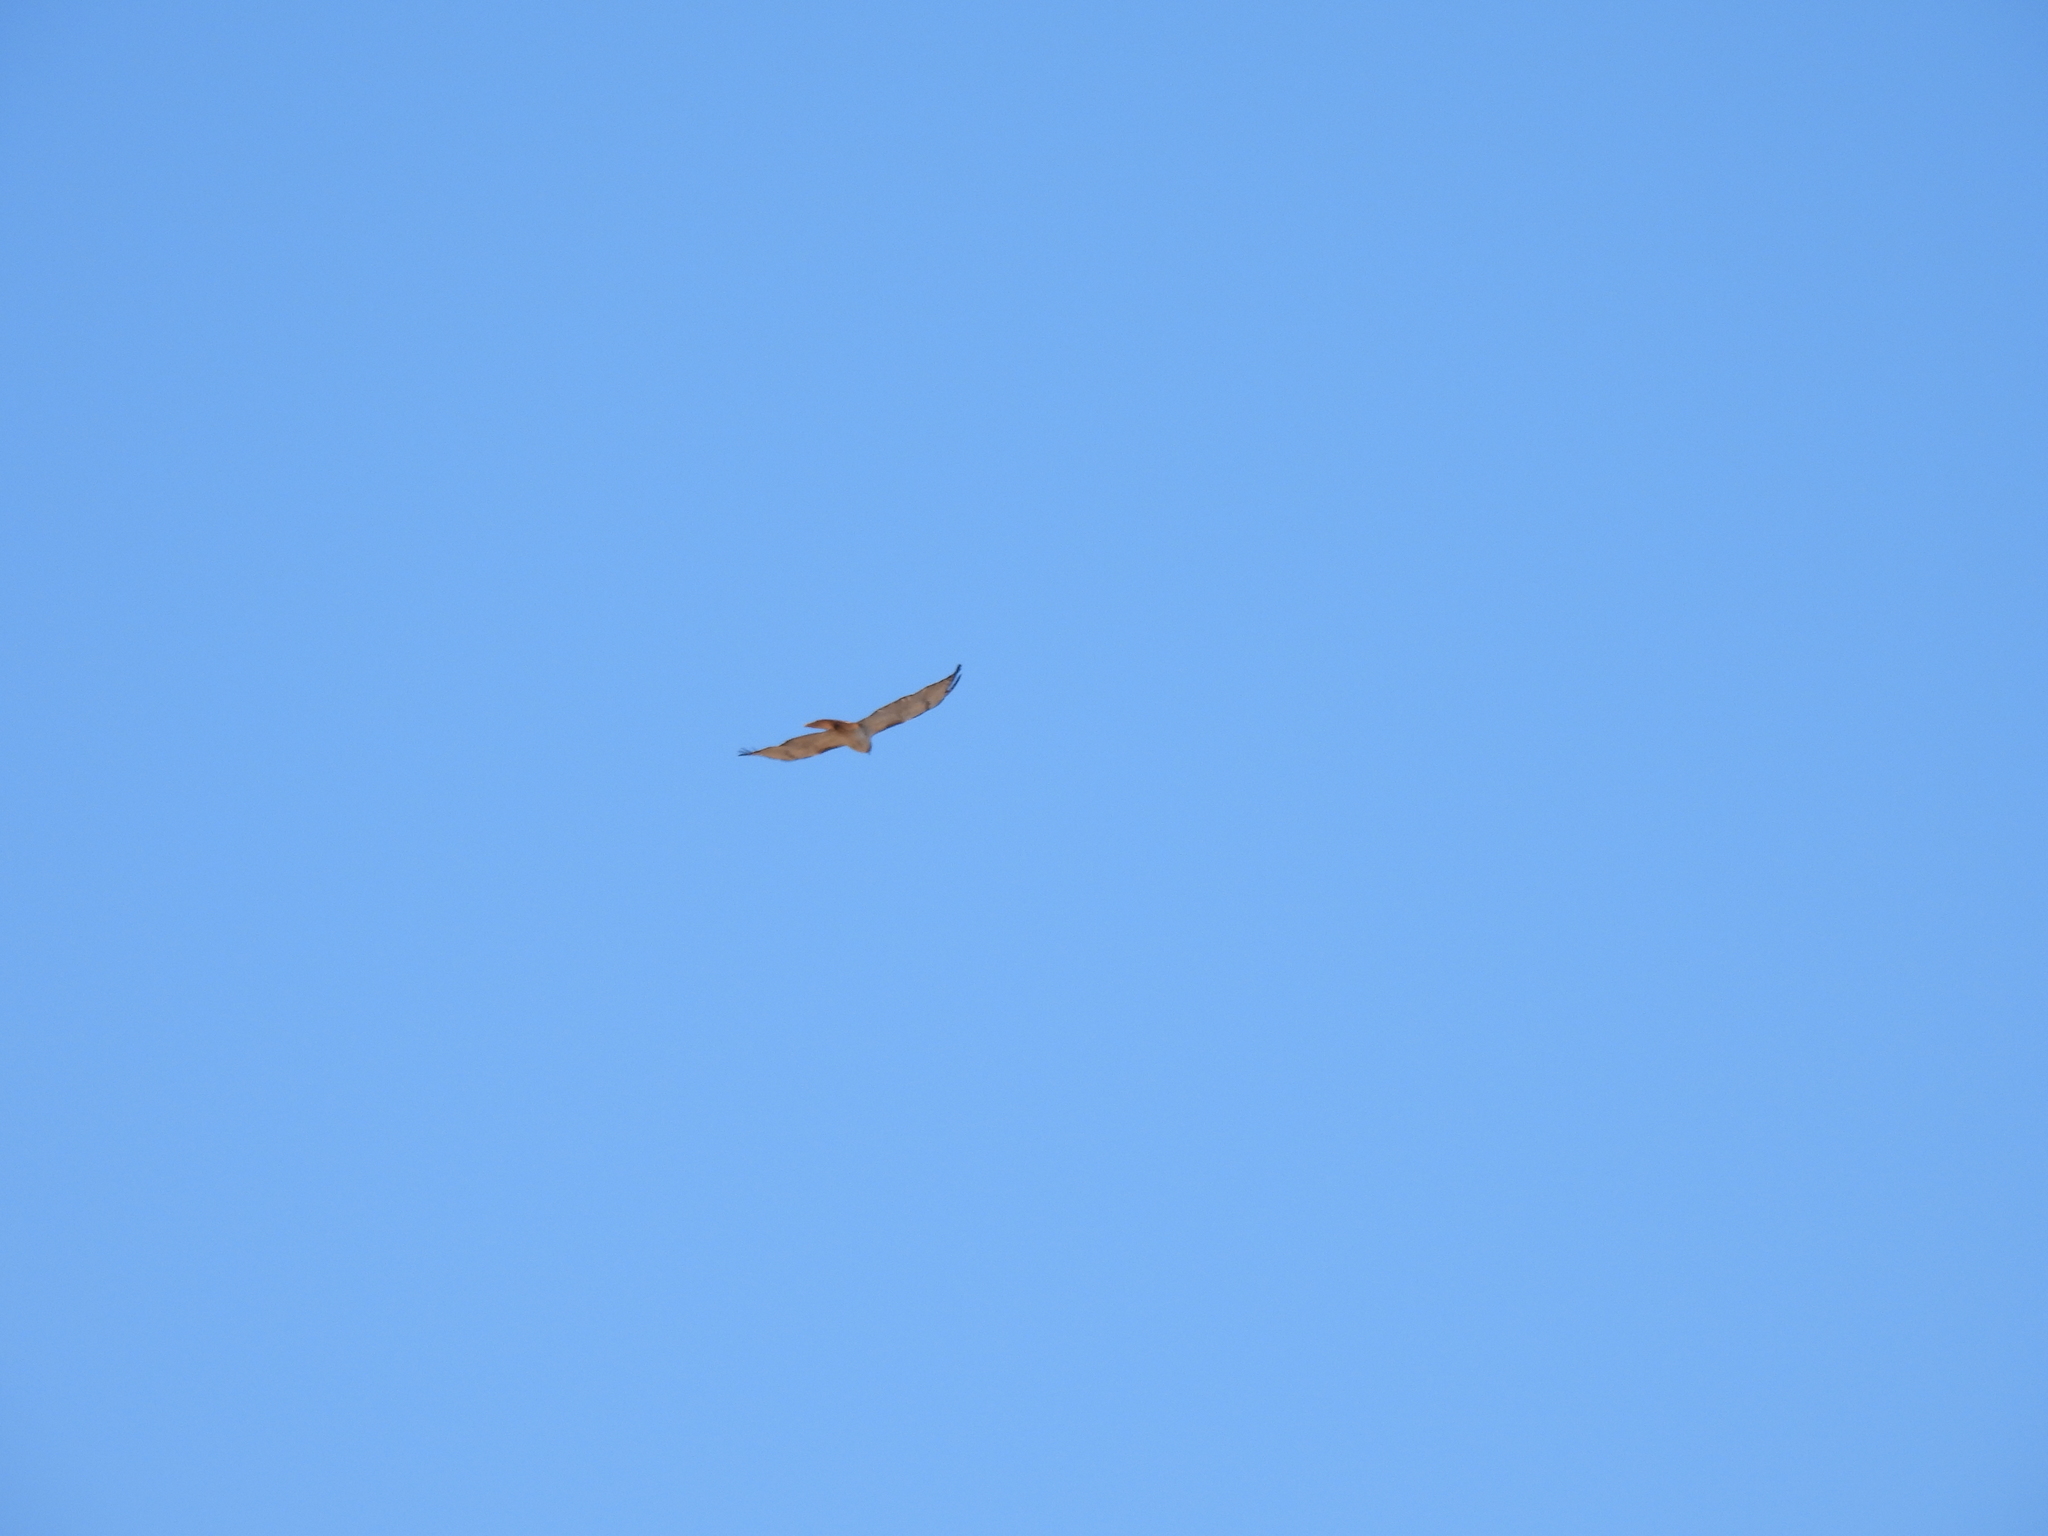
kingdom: Animalia
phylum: Chordata
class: Aves
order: Accipitriformes
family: Accipitridae
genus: Buteo
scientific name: Buteo jamaicensis
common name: Red-tailed hawk
